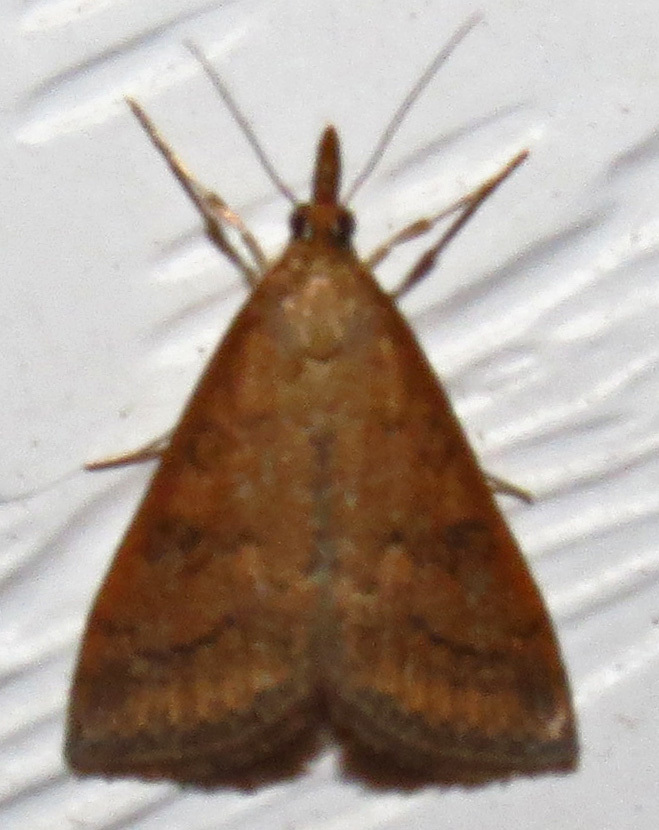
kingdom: Animalia
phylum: Arthropoda
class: Insecta
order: Lepidoptera
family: Crambidae
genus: Udea
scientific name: Udea rubigalis
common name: Celery leaftier moth
